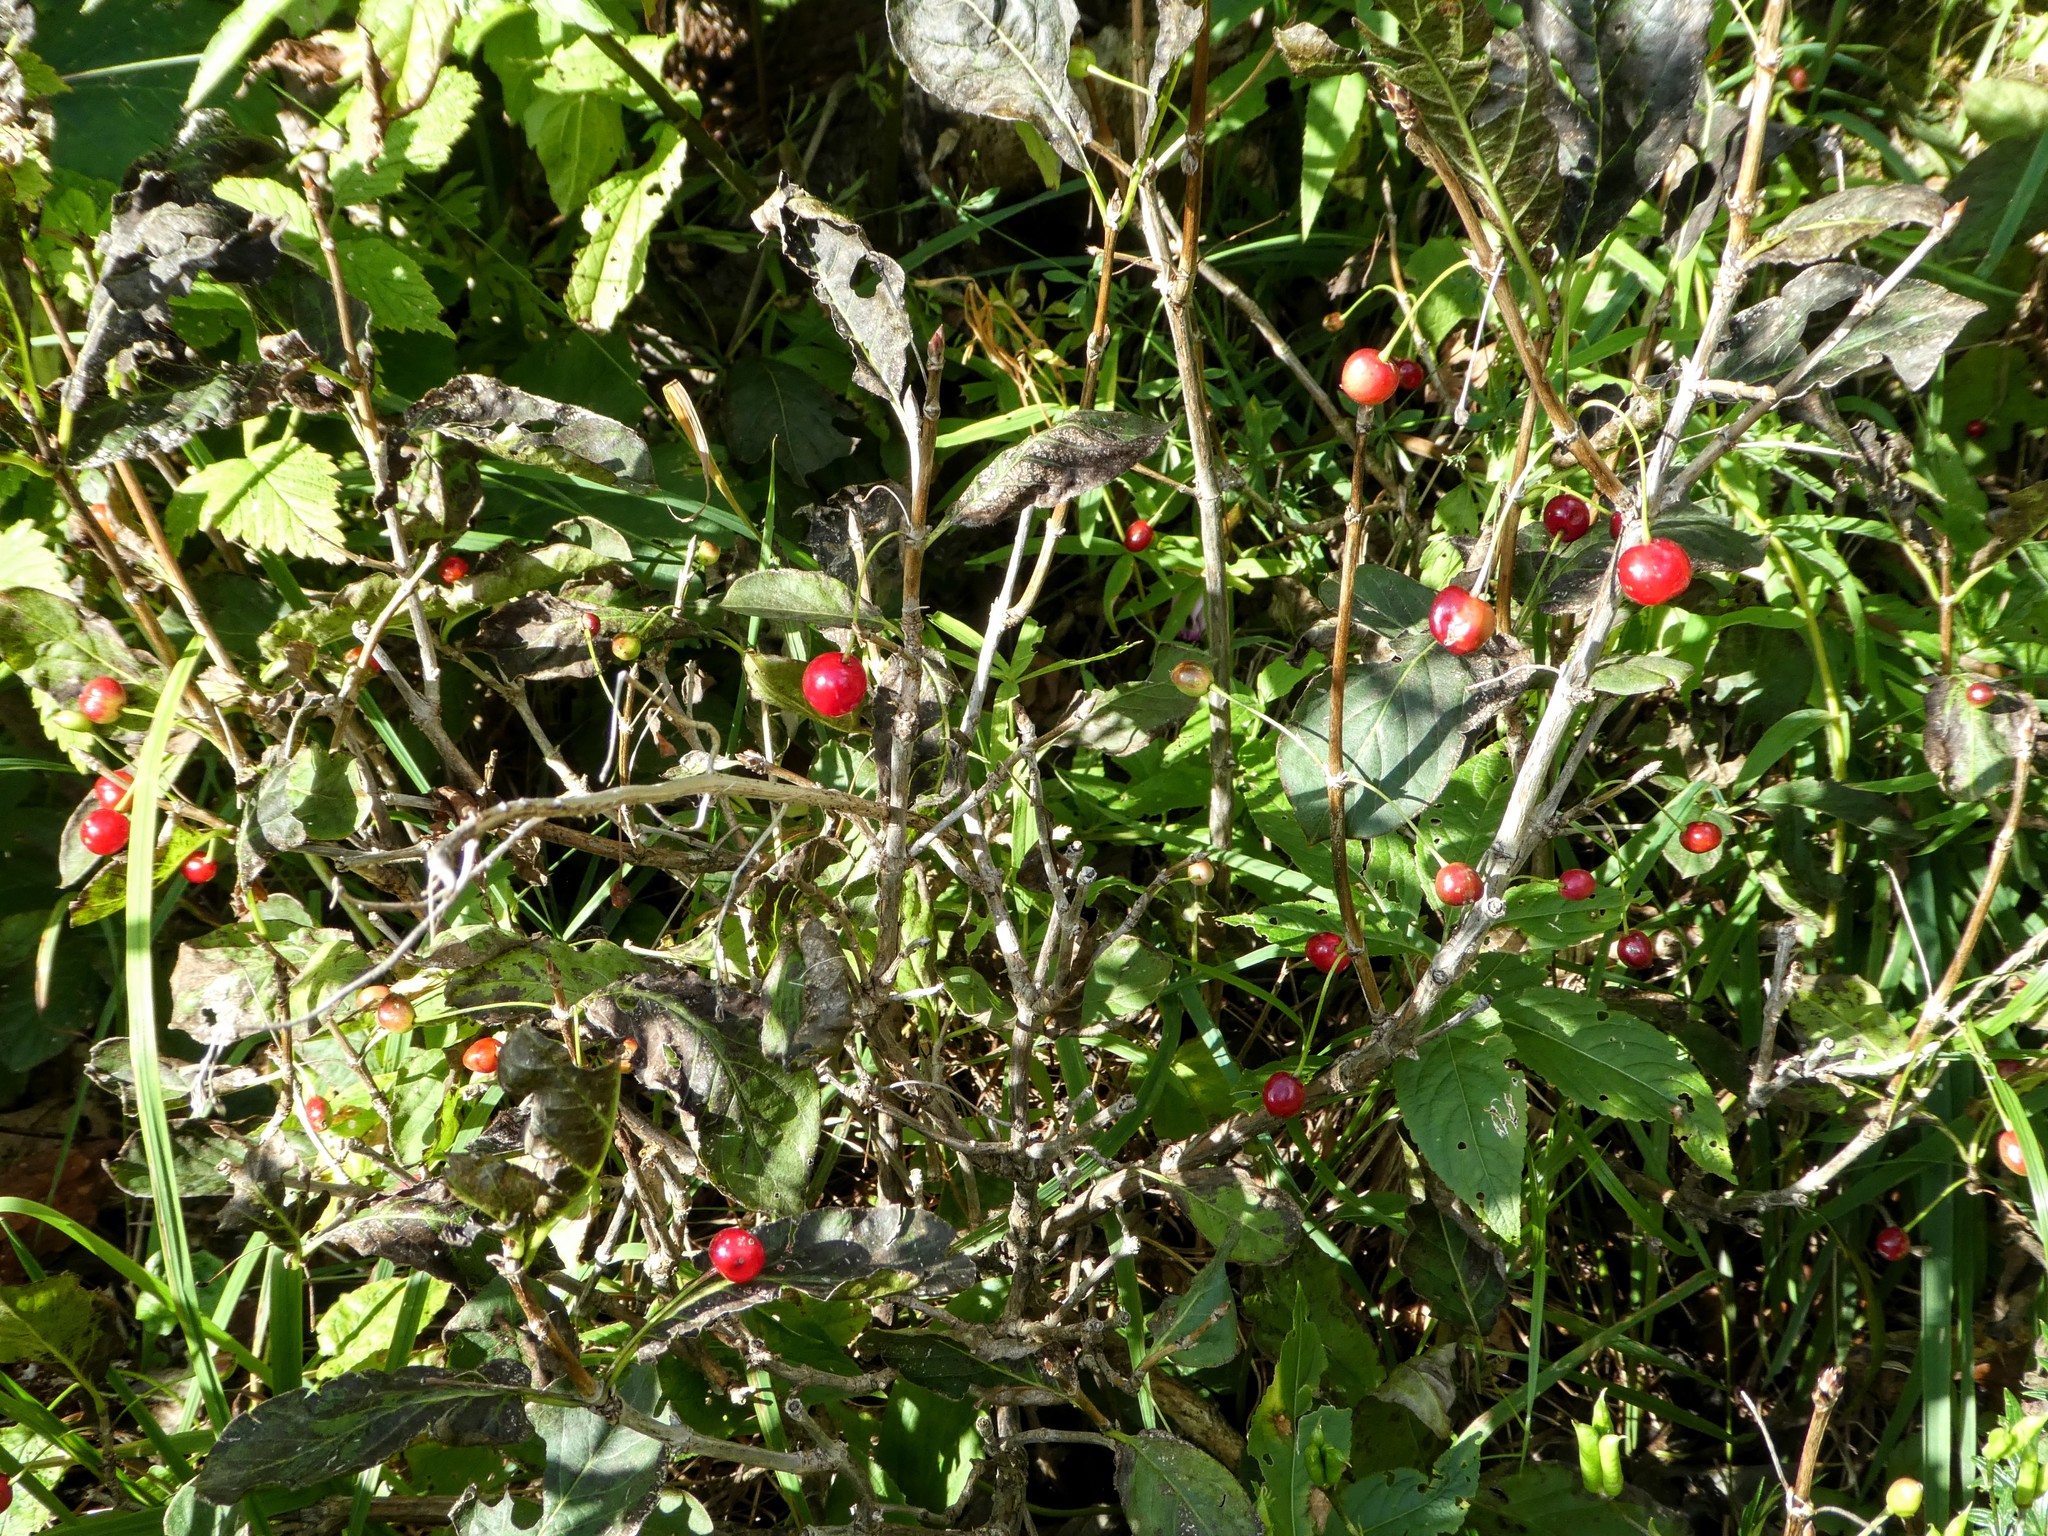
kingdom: Plantae
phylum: Tracheophyta
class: Magnoliopsida
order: Dipsacales
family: Caprifoliaceae
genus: Lonicera
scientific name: Lonicera alpigena
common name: Alpine honeysuckle
